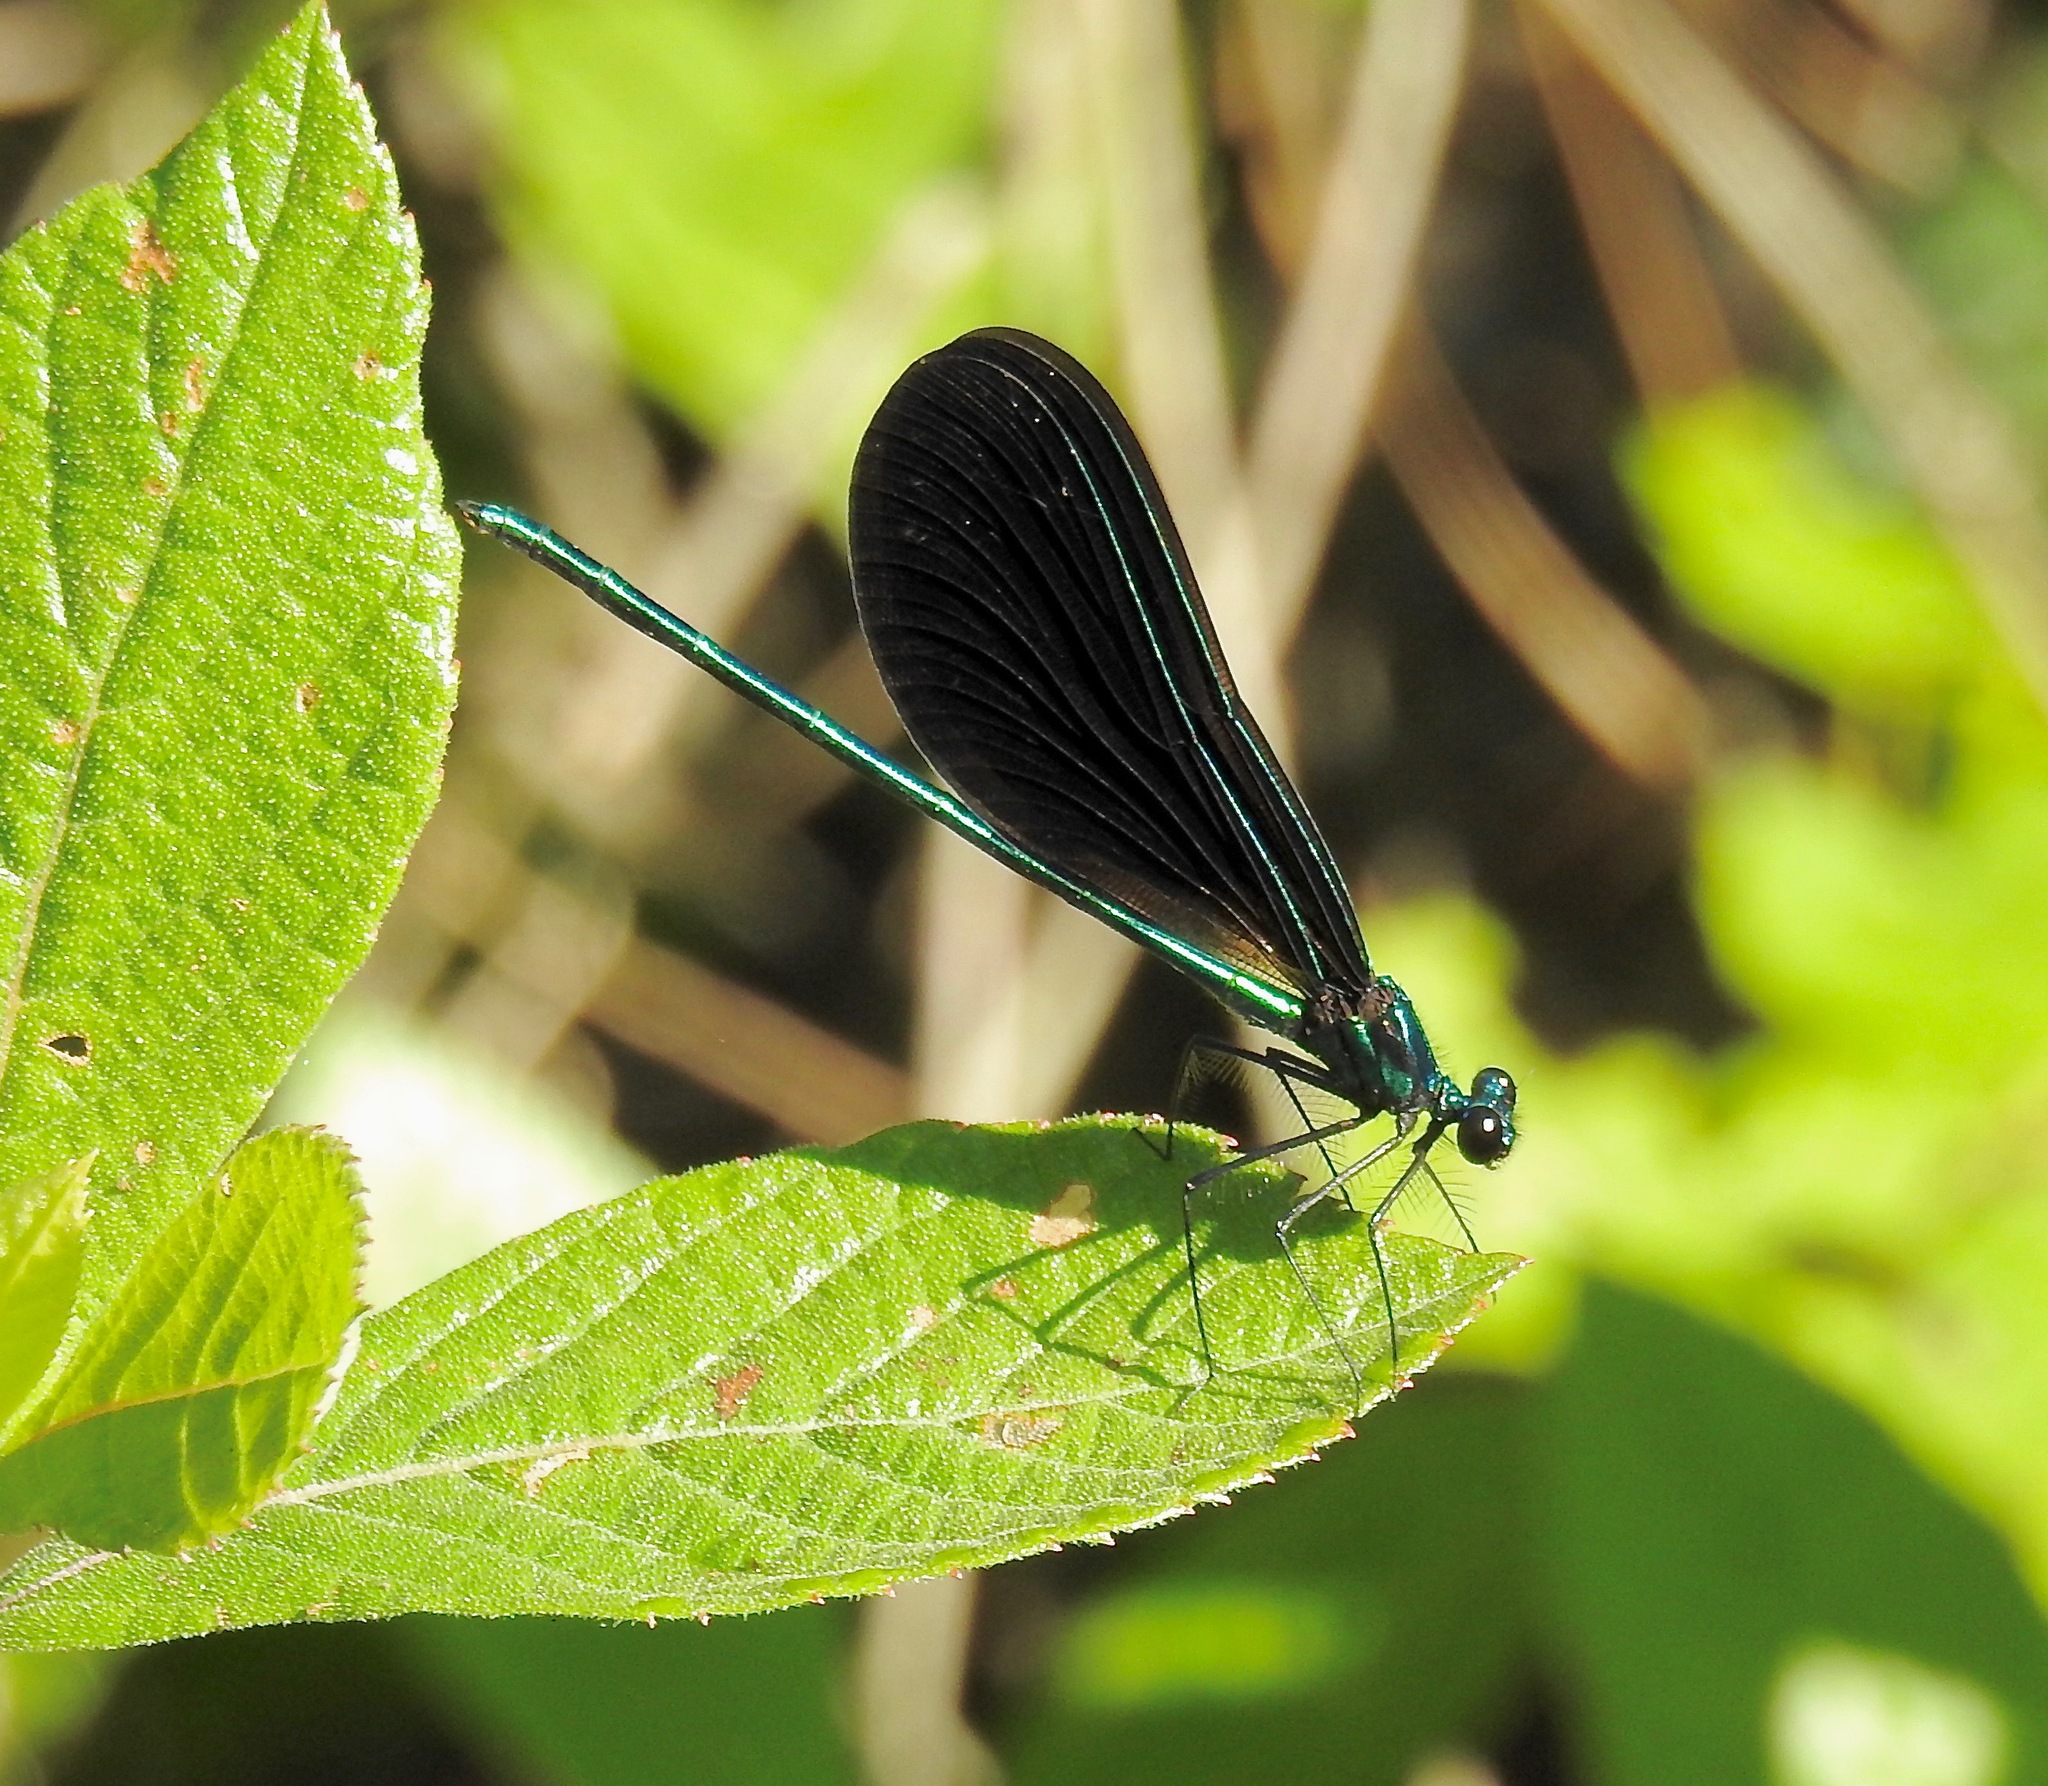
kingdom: Animalia
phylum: Arthropoda
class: Insecta
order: Odonata
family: Calopterygidae
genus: Calopteryx
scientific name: Calopteryx maculata
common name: Ebony jewelwing
